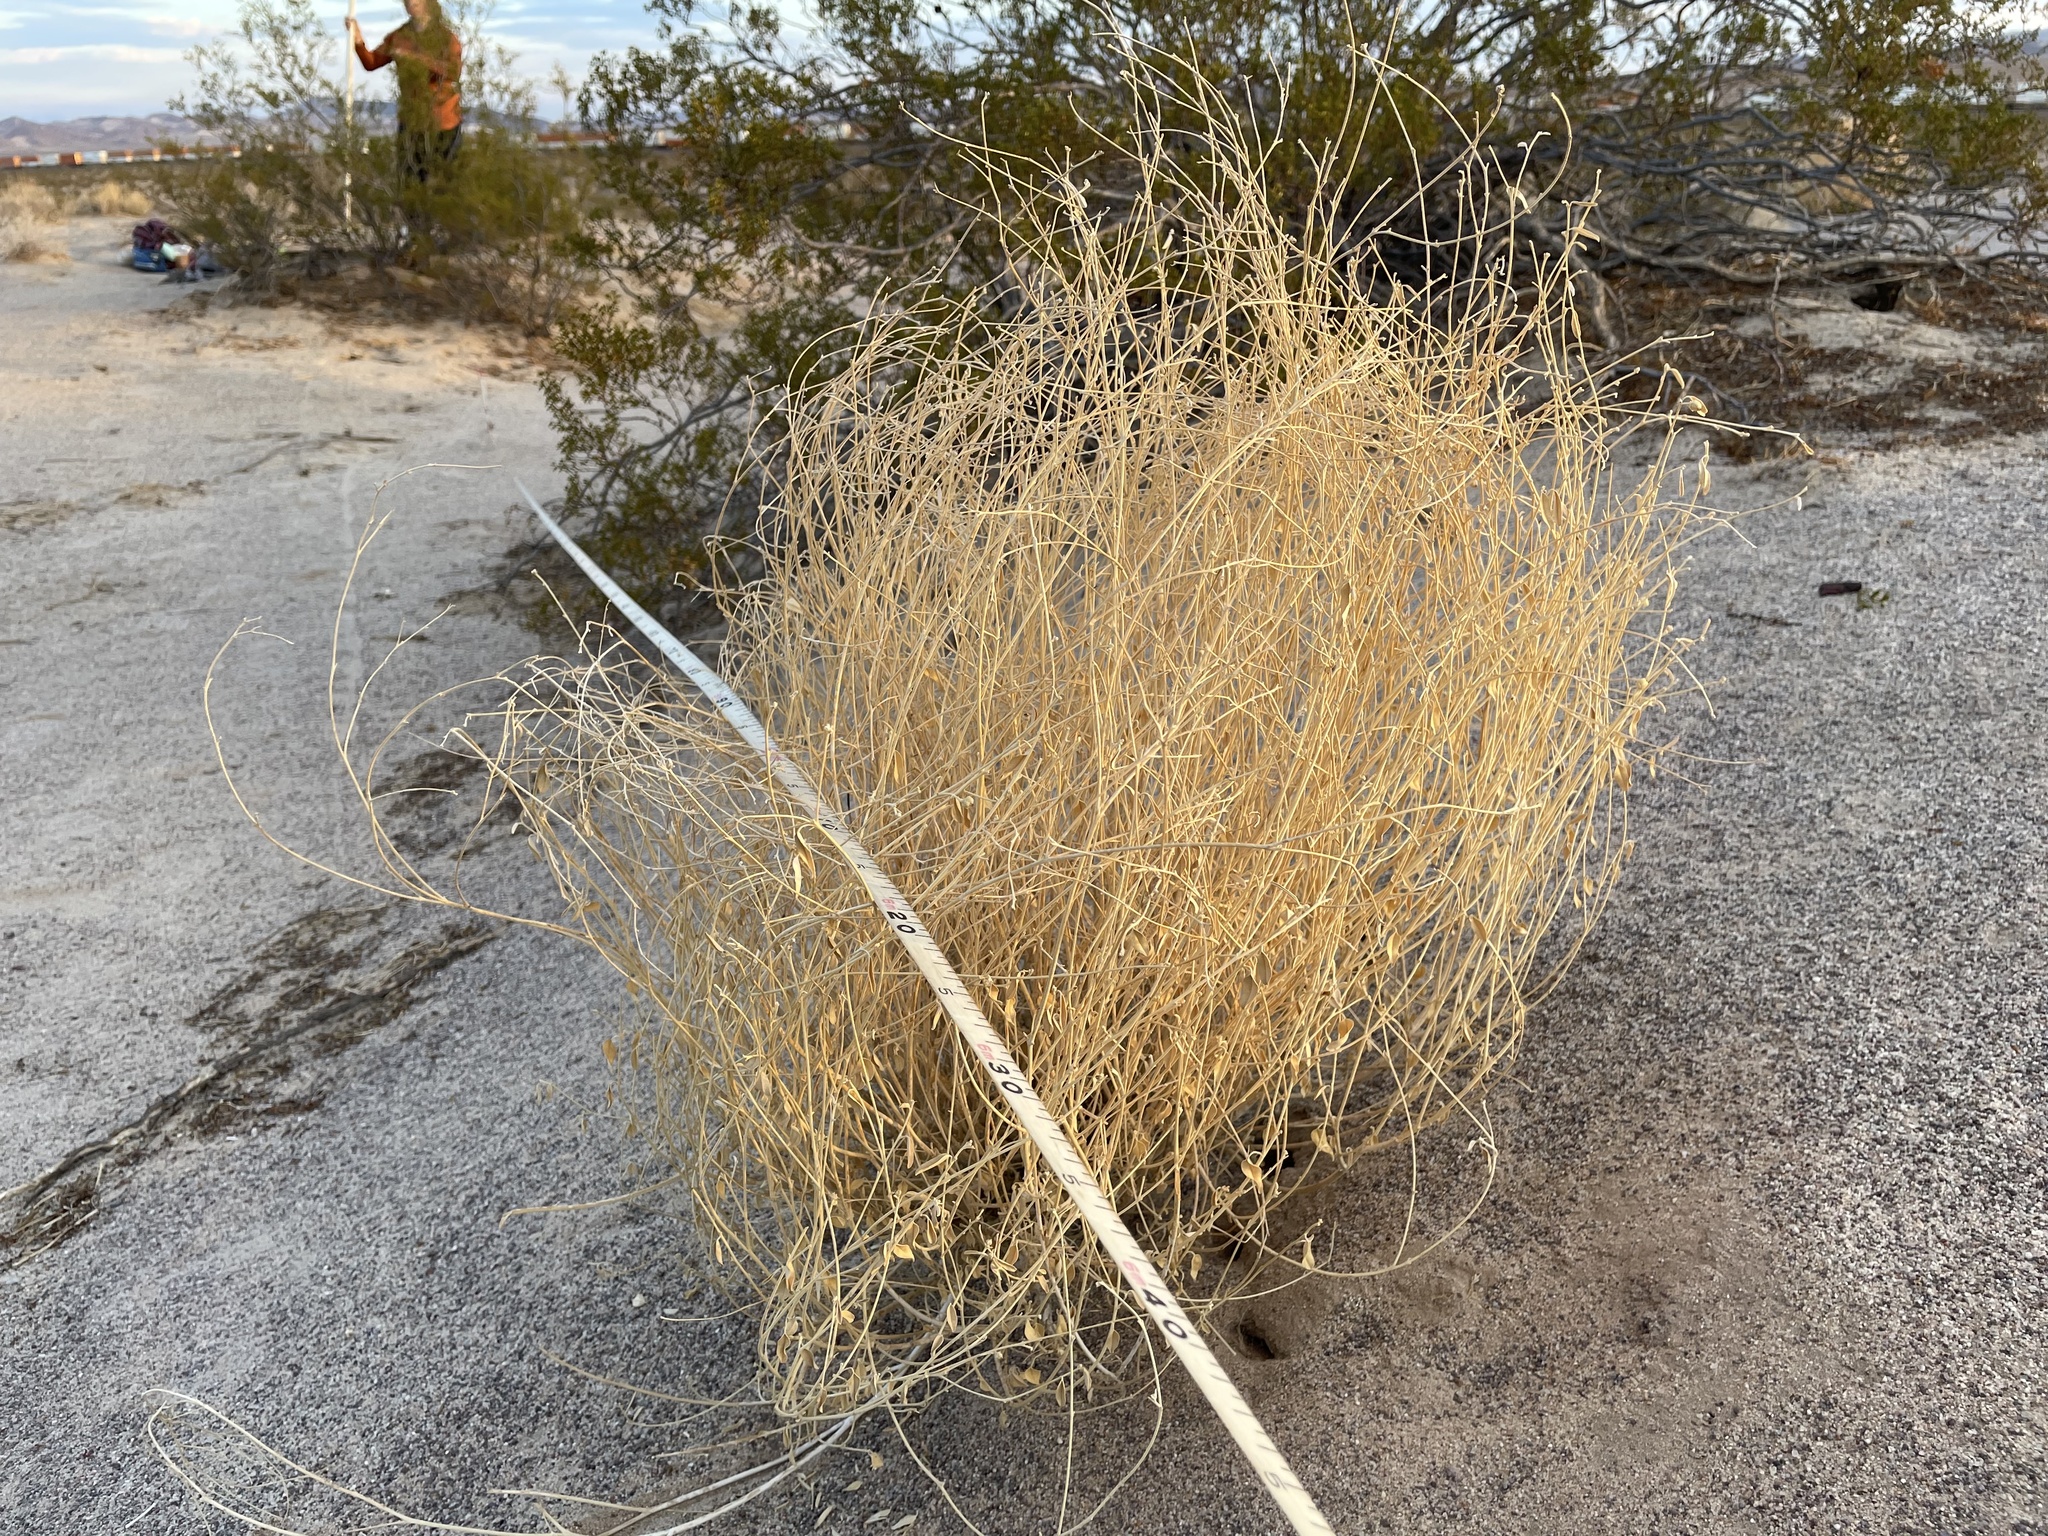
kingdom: Plantae
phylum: Tracheophyta
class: Magnoliopsida
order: Malpighiales
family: Euphorbiaceae
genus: Croton
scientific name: Croton californicus
